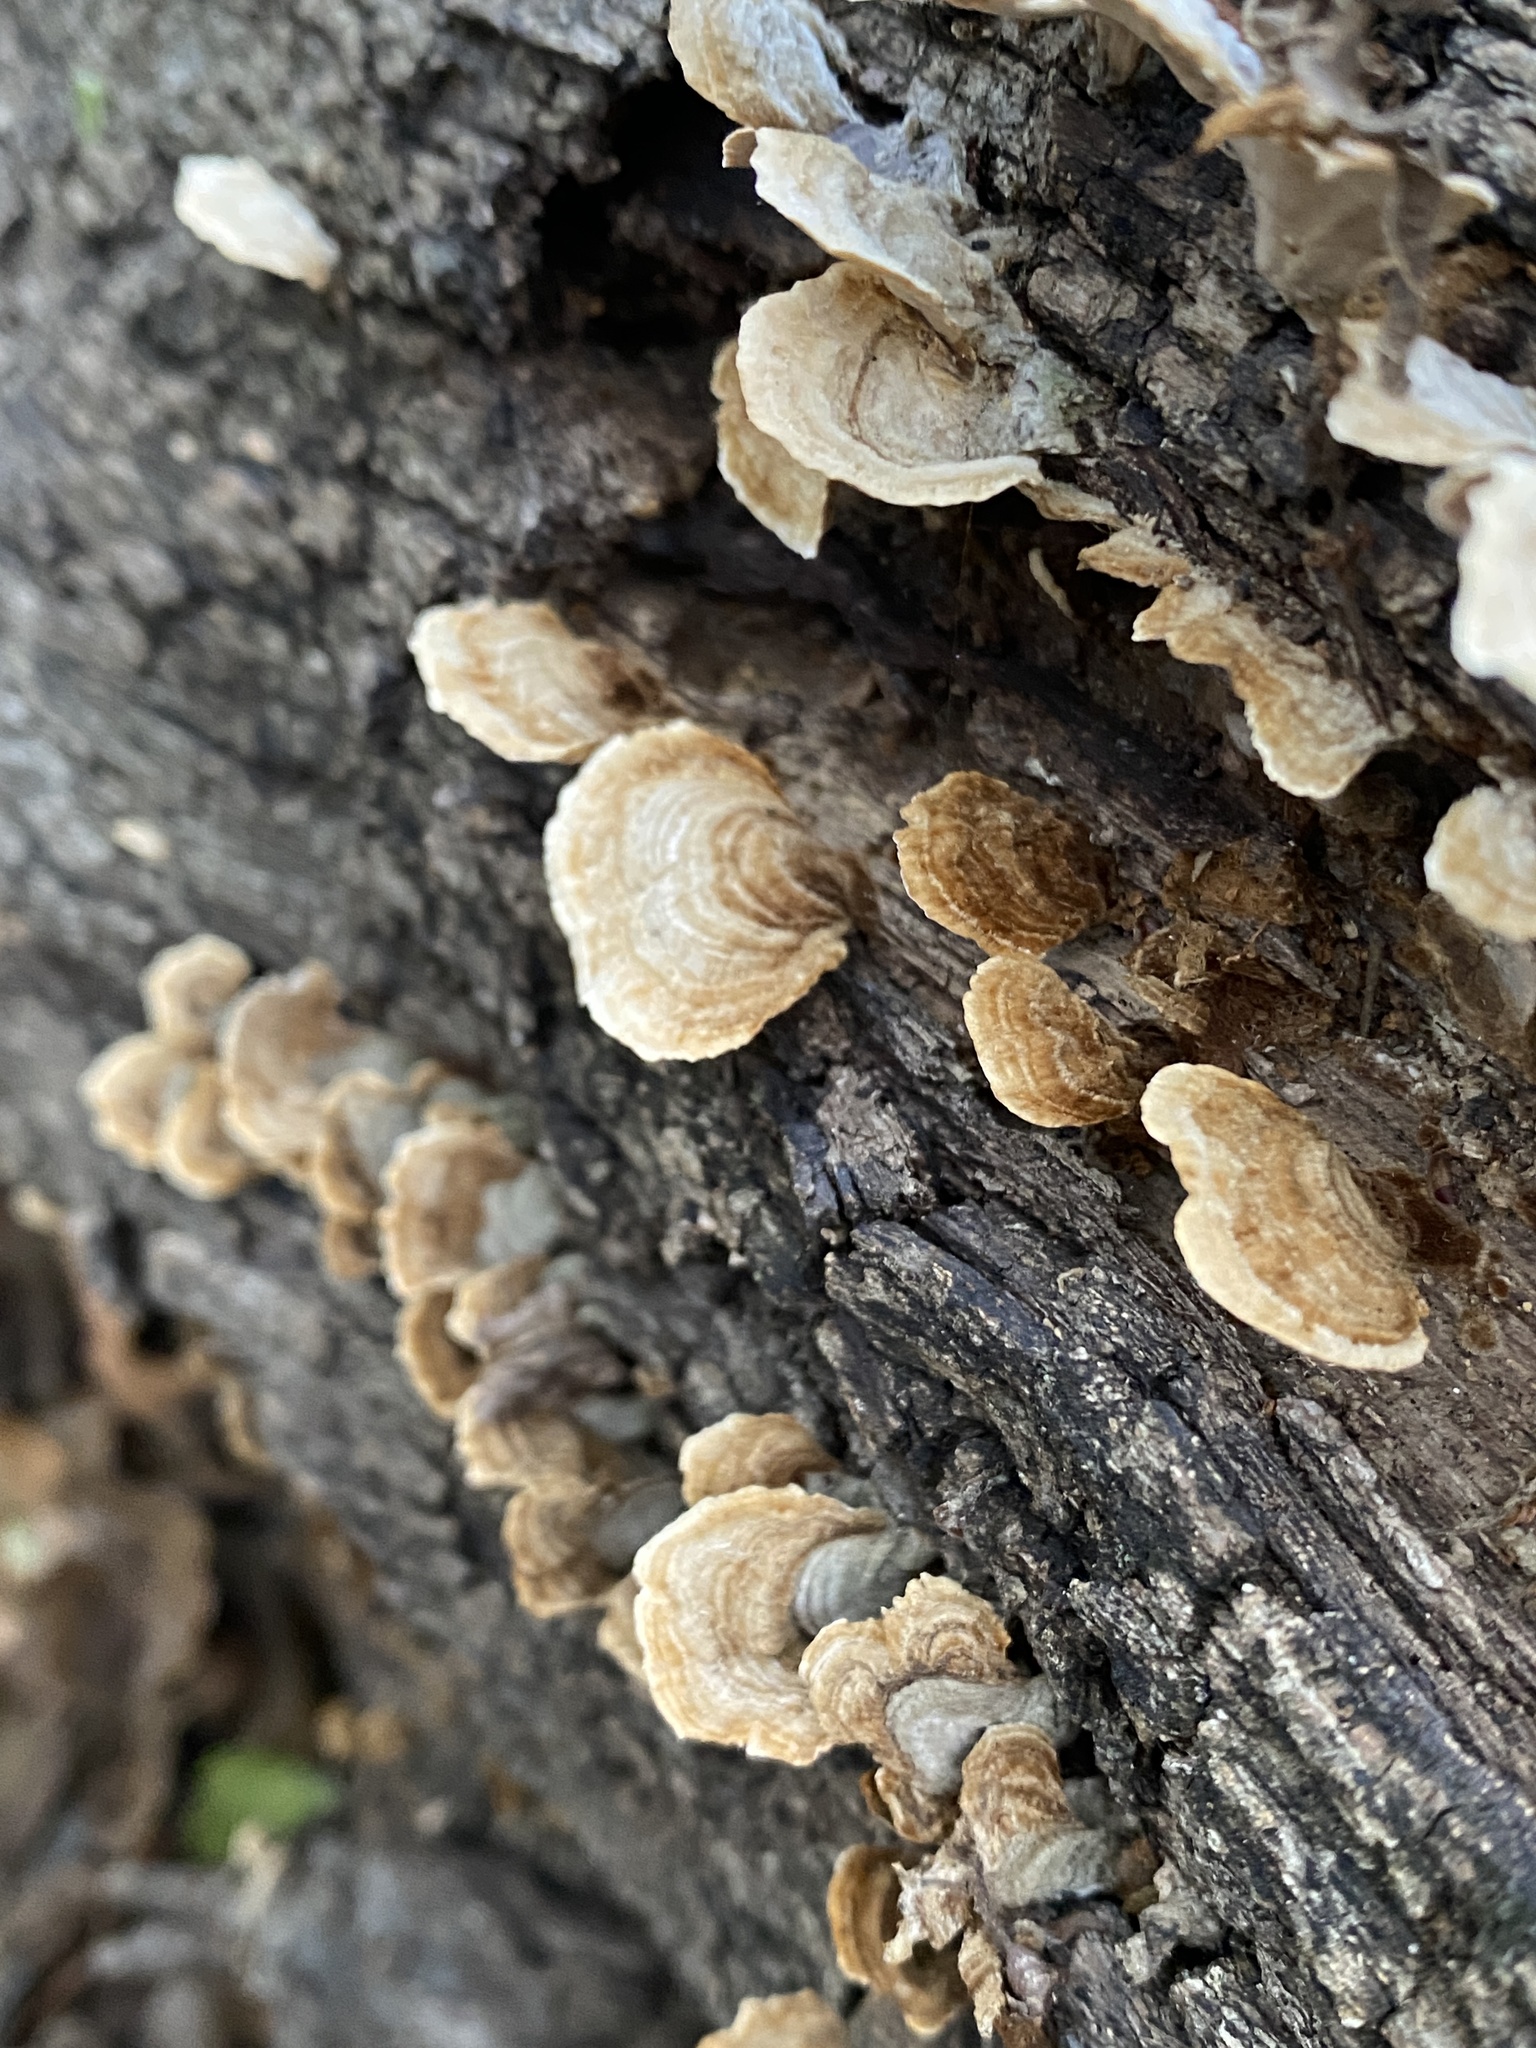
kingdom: Fungi
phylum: Basidiomycota
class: Agaricomycetes
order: Russulales
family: Stereaceae
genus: Stereum
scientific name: Stereum ostrea
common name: False turkeytail
